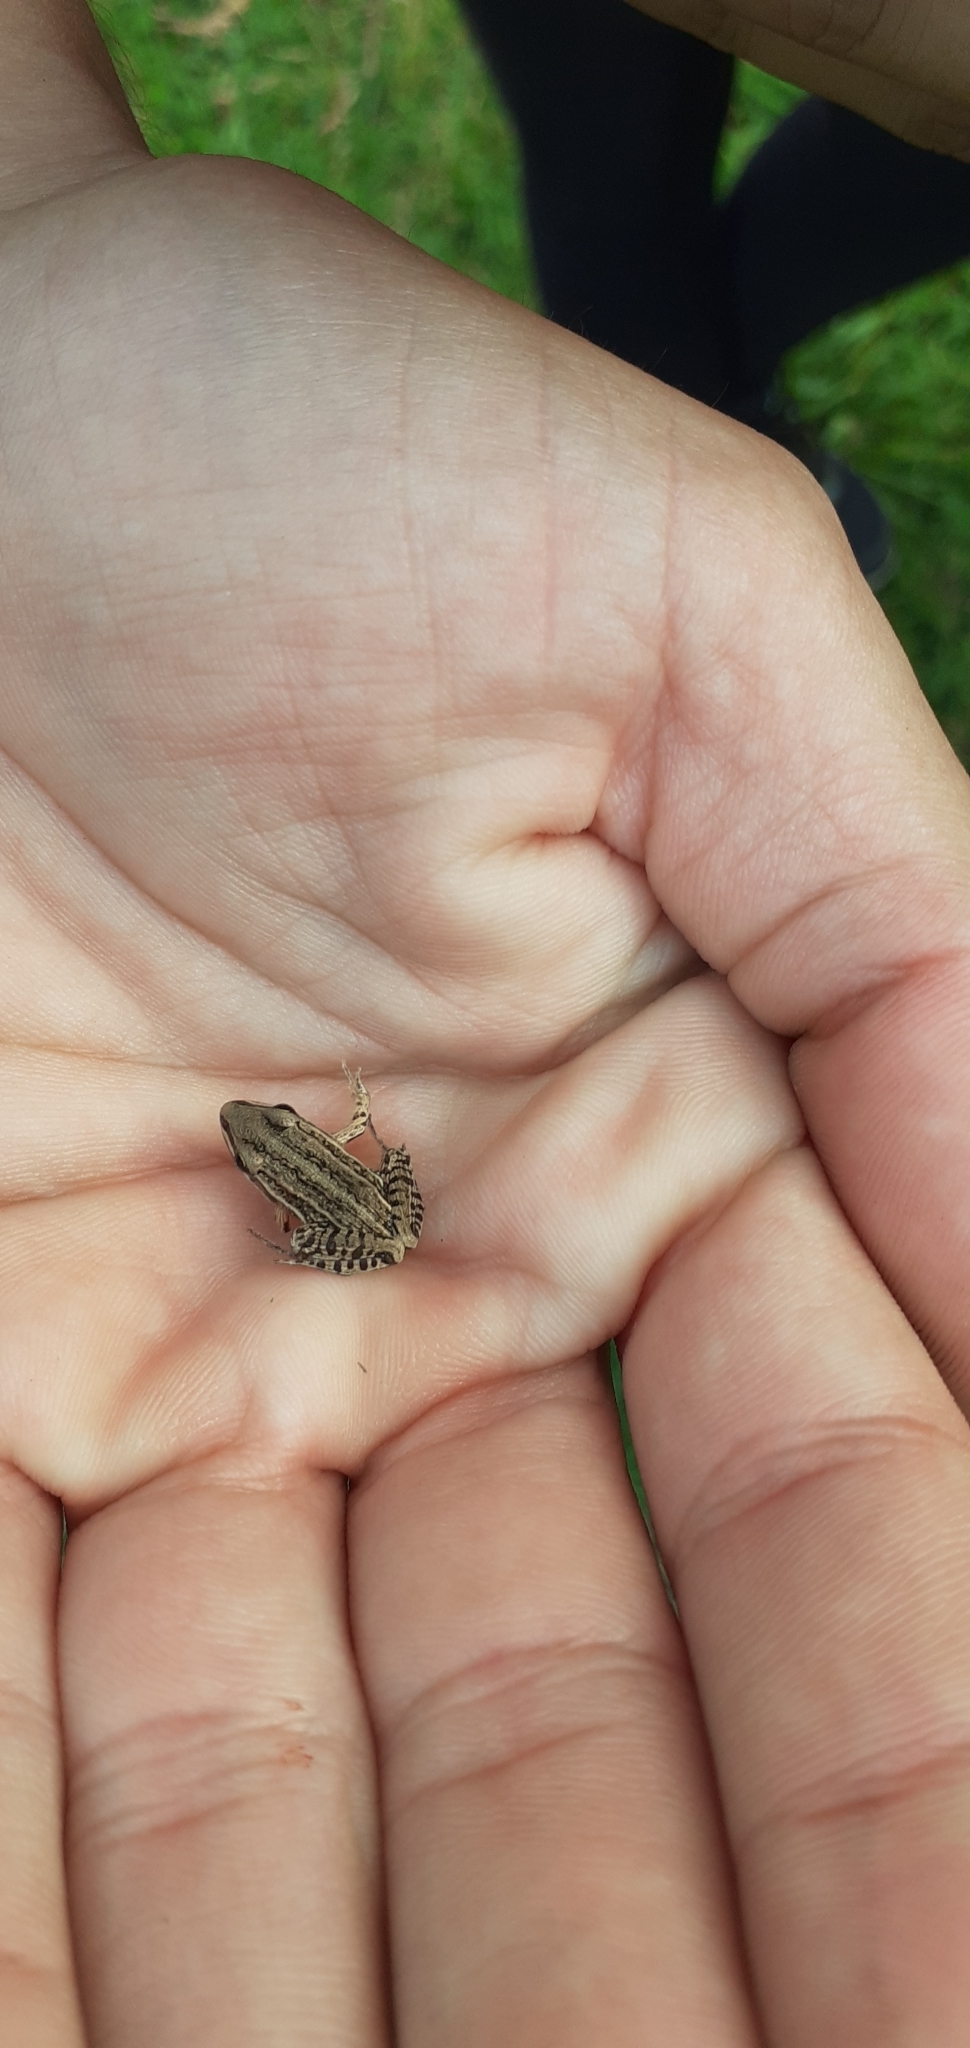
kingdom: Animalia
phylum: Chordata
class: Amphibia
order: Anura
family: Leptodactylidae
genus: Leptodactylus
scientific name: Leptodactylus gracilis
